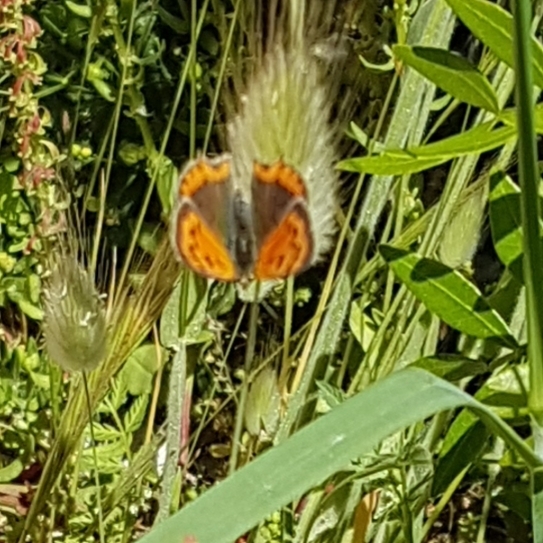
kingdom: Animalia
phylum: Arthropoda
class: Insecta
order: Lepidoptera
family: Lycaenidae
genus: Lycaena
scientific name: Lycaena phlaeas
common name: Small copper
